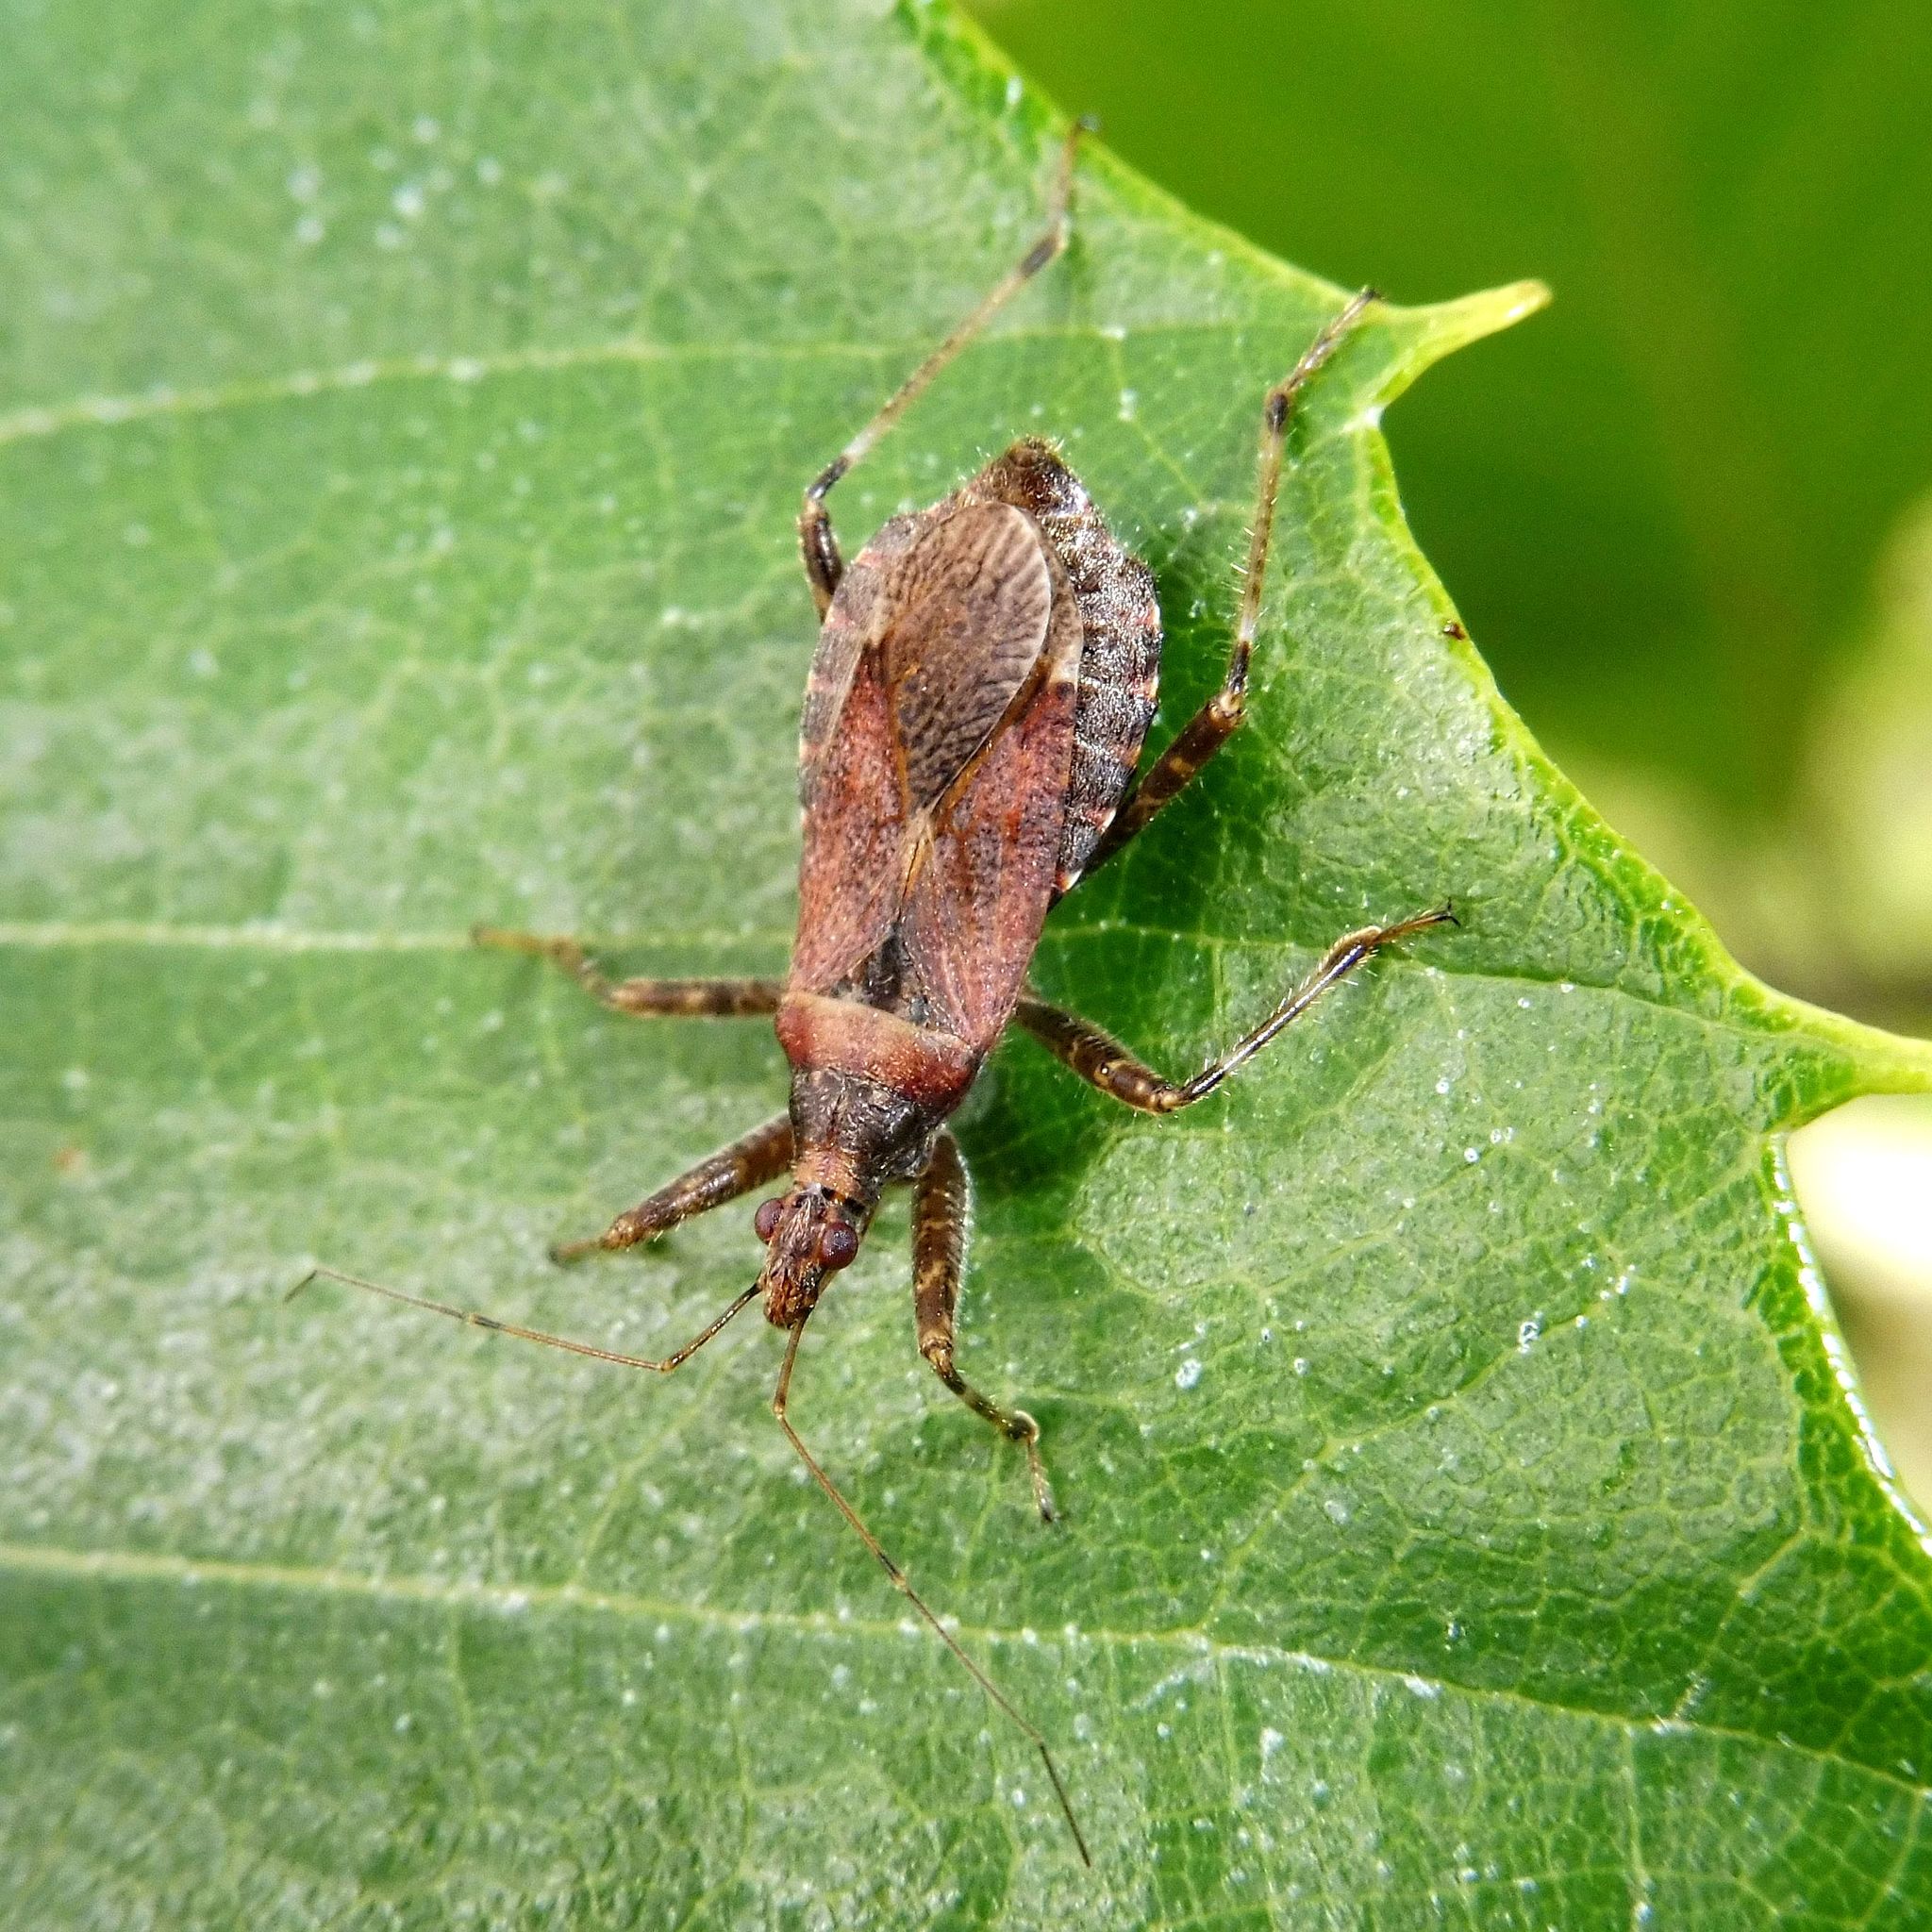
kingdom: Animalia
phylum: Arthropoda
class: Insecta
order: Hemiptera
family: Nabidae
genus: Himacerus
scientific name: Himacerus apterus
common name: Tree damsel bug
